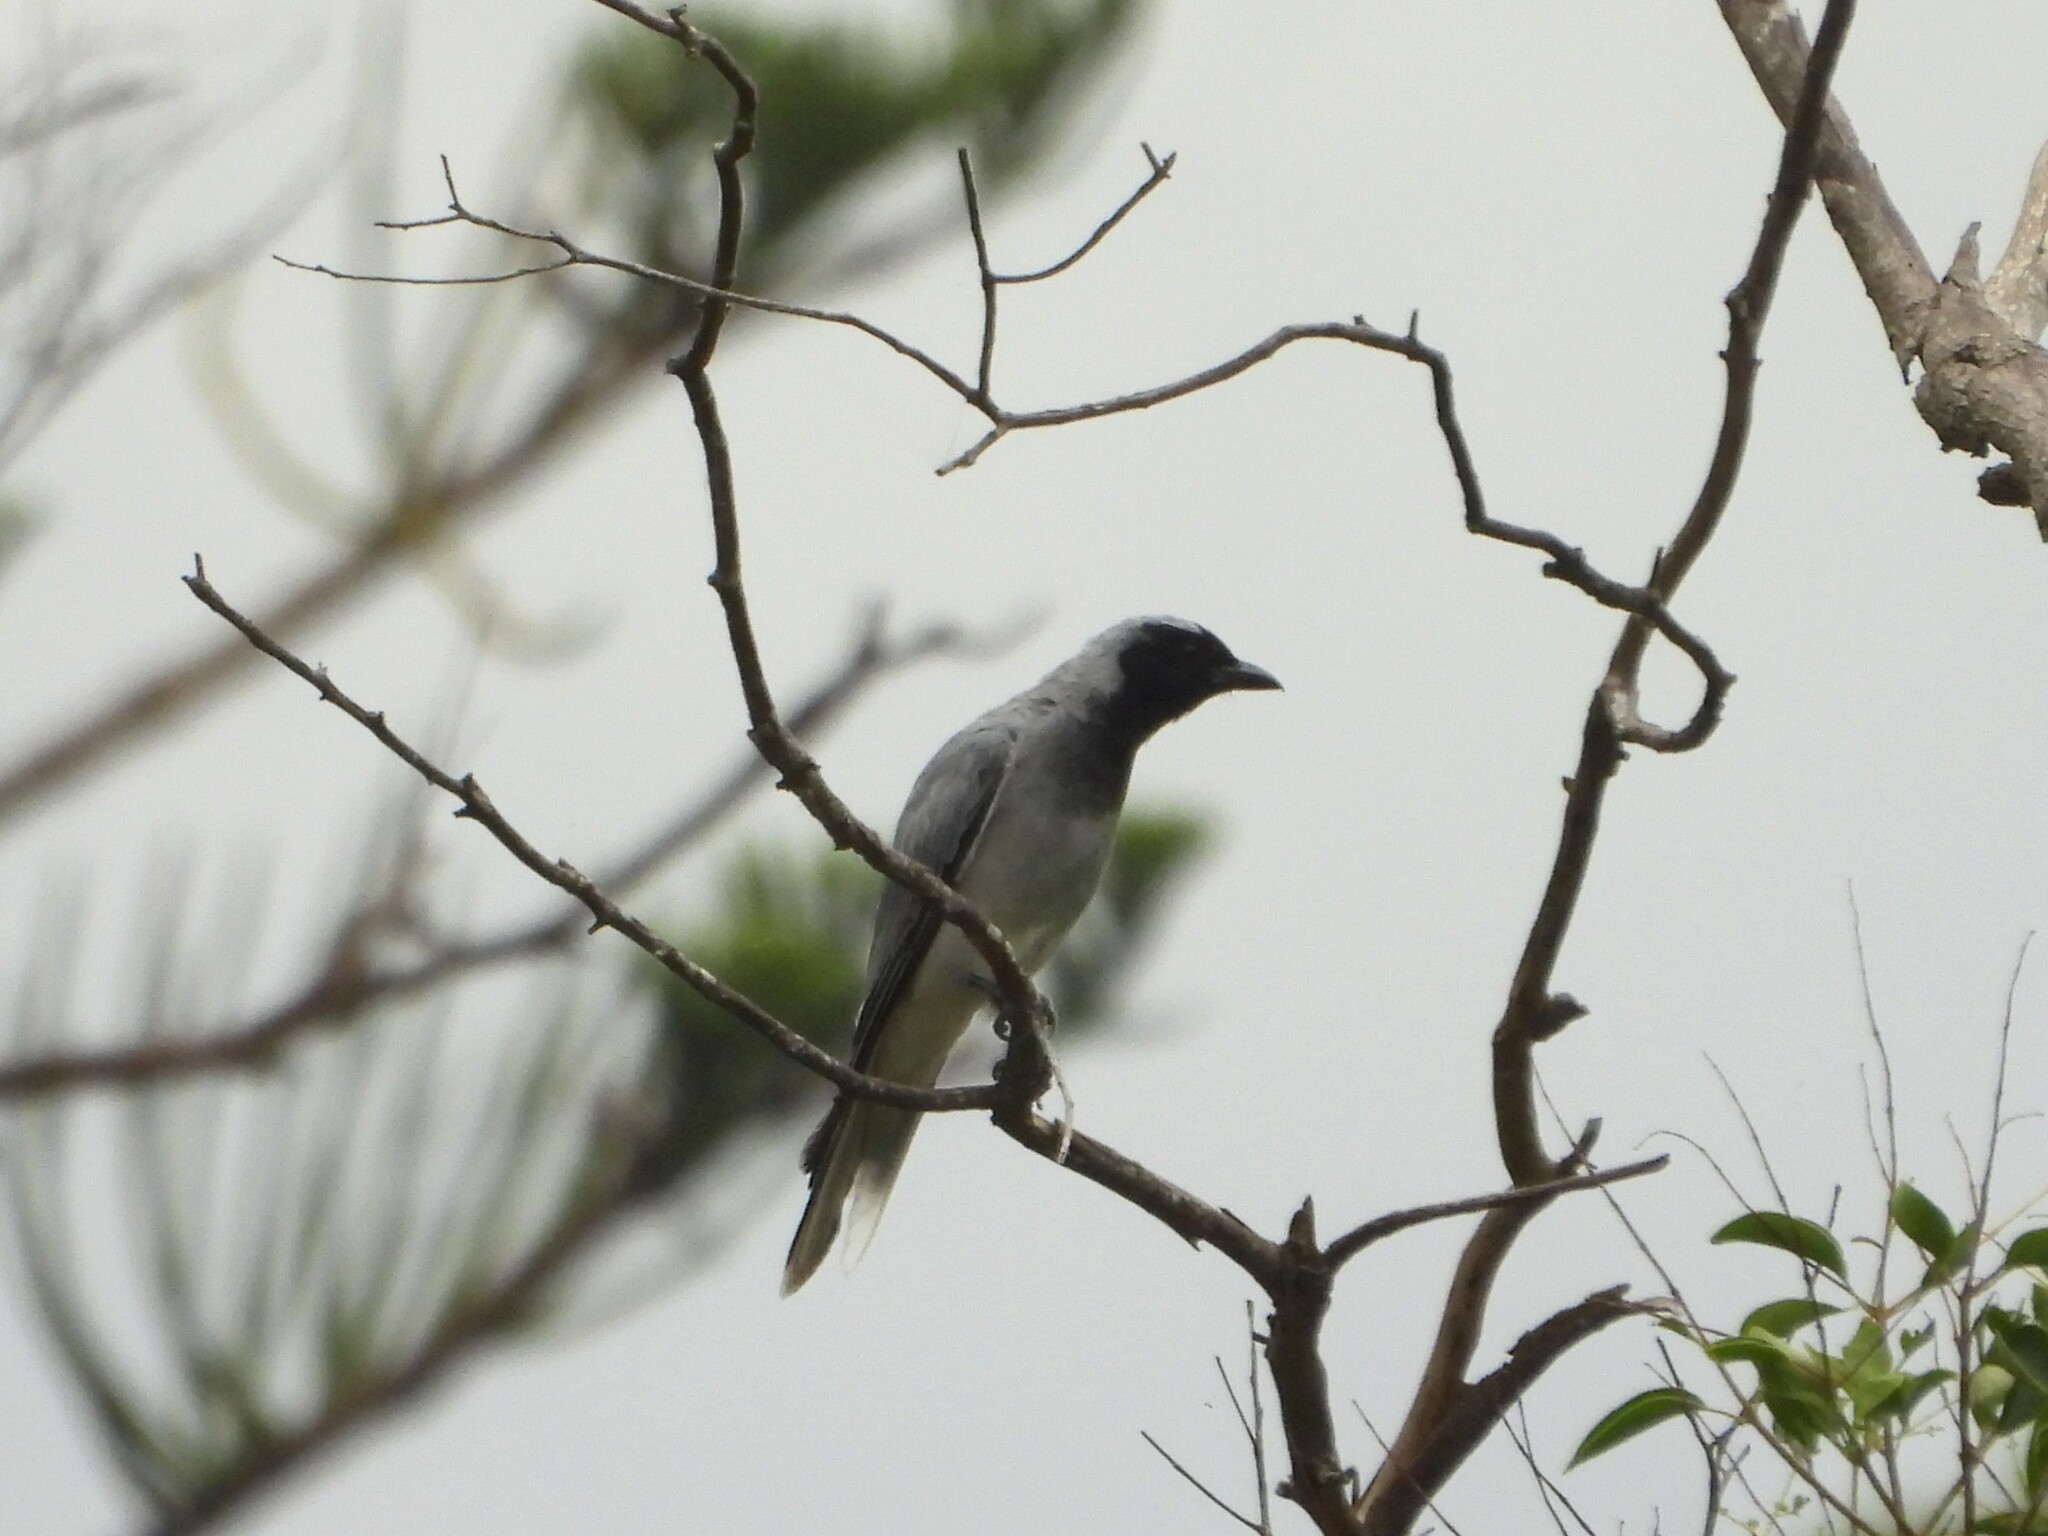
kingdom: Animalia
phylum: Chordata
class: Aves
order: Passeriformes
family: Campephagidae
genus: Coracina
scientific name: Coracina novaehollandiae
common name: Black-faced cuckooshrike
